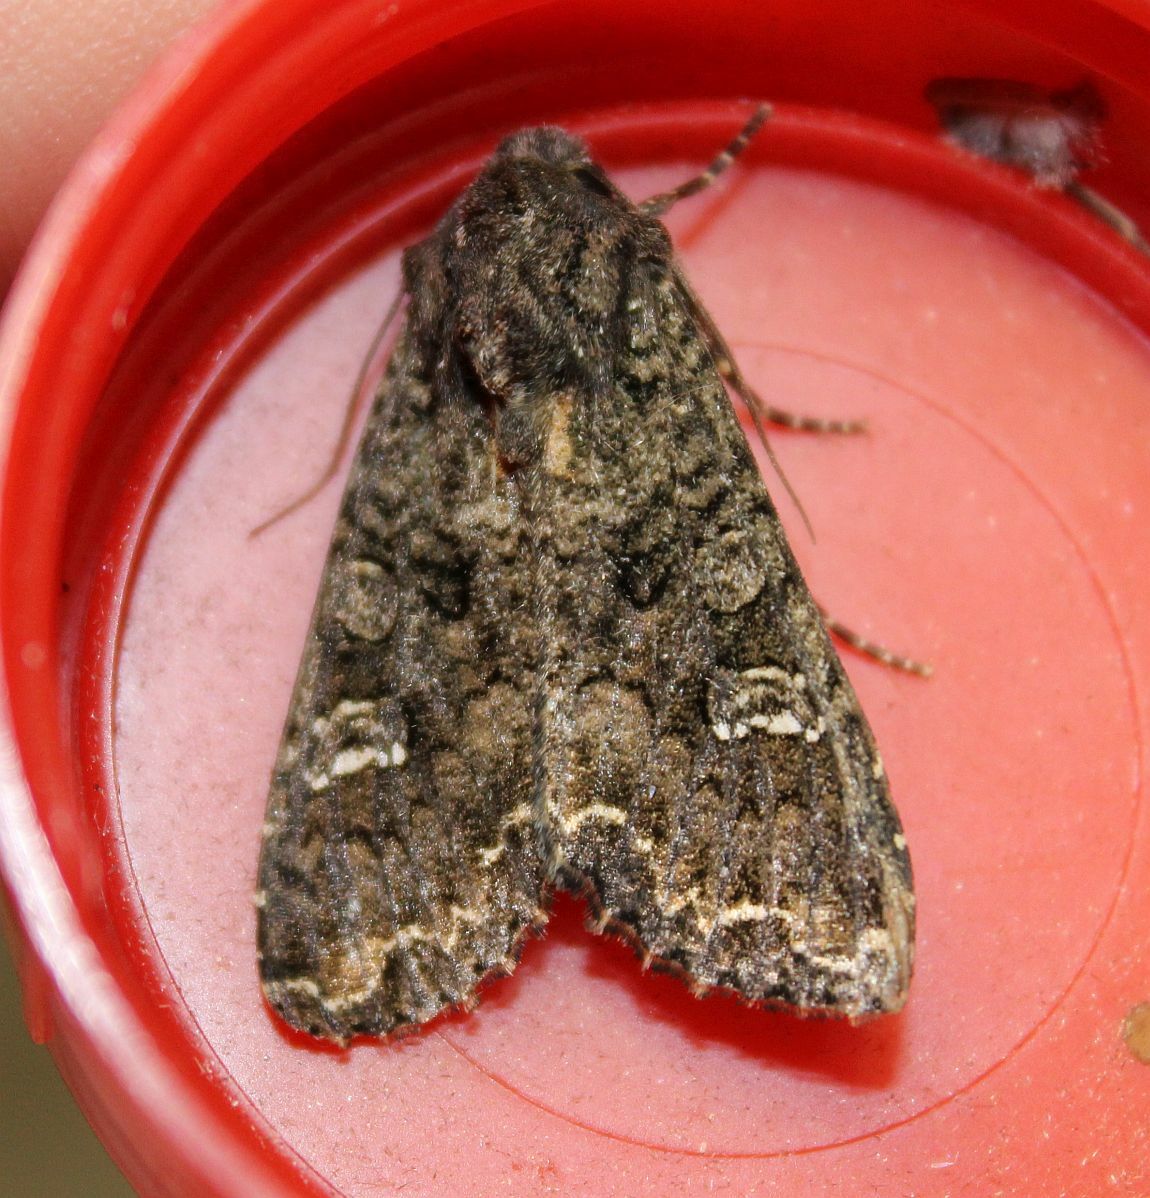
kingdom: Animalia
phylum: Arthropoda
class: Insecta
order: Lepidoptera
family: Noctuidae
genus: Mamestra
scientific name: Mamestra brassicae
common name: Cabbage moth
